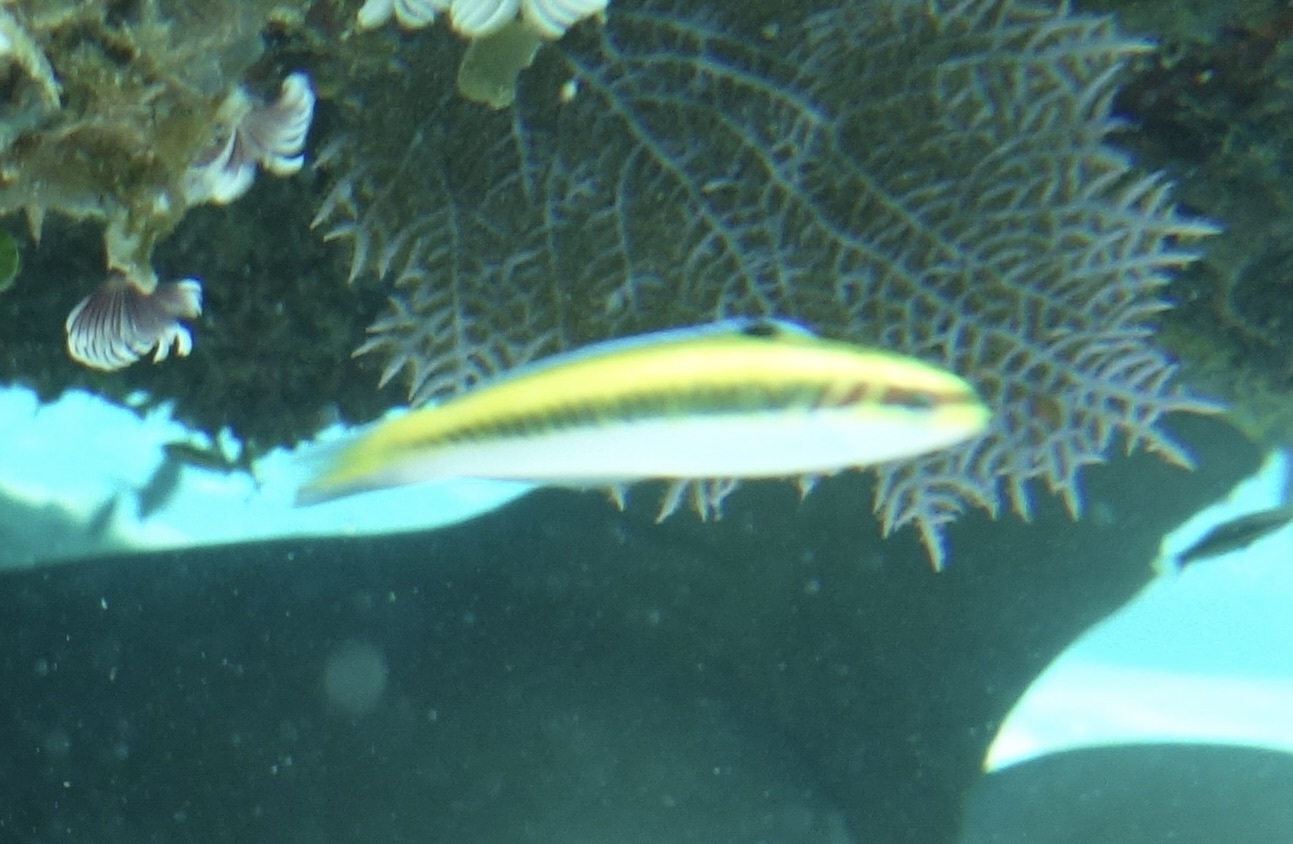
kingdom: Animalia
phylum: Chordata
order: Perciformes
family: Labridae
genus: Thalassoma
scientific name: Thalassoma bifasciatum
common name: Bluehead wrasse
